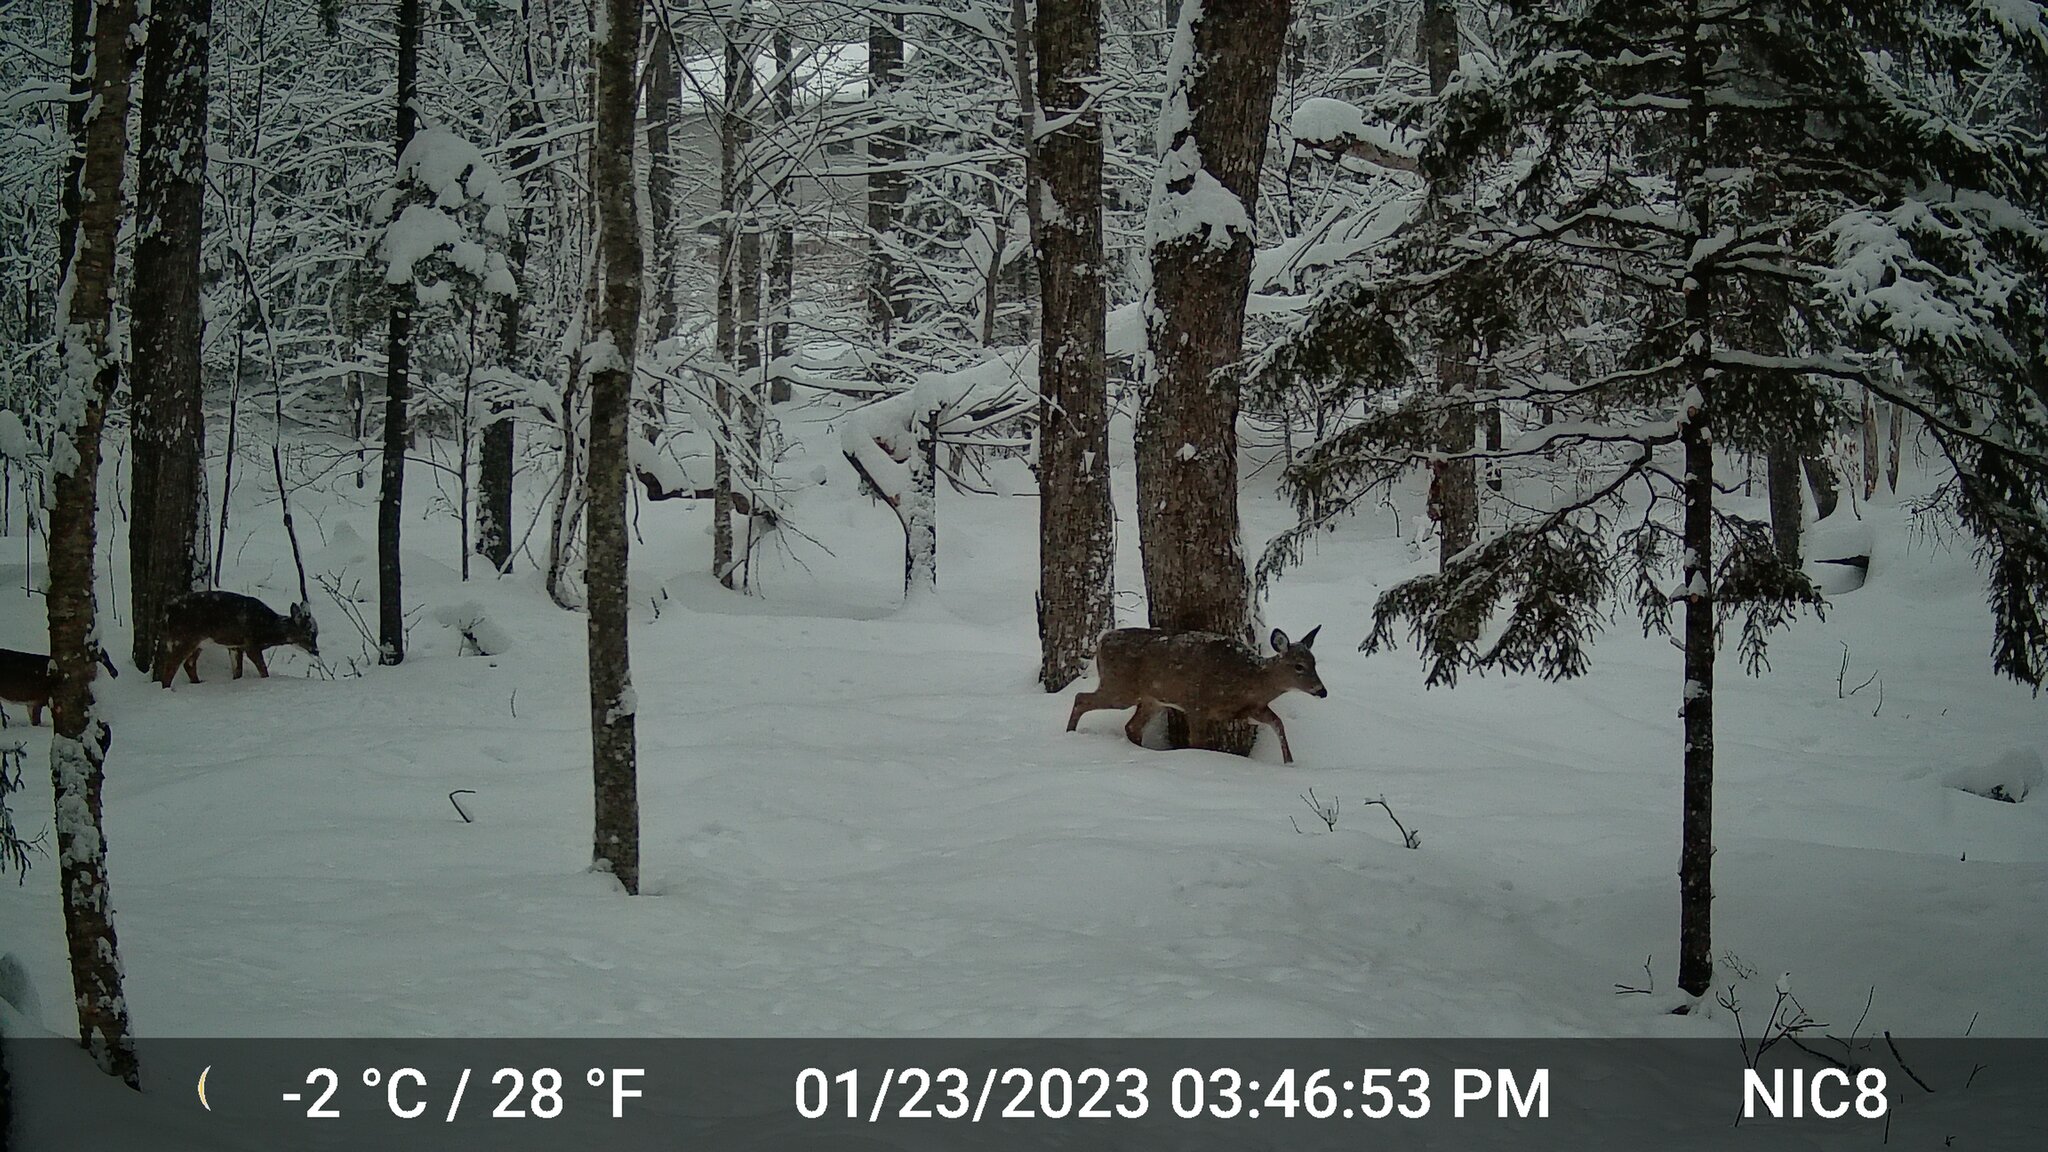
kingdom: Animalia
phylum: Chordata
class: Mammalia
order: Artiodactyla
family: Cervidae
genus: Odocoileus
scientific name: Odocoileus virginianus
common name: White-tailed deer
